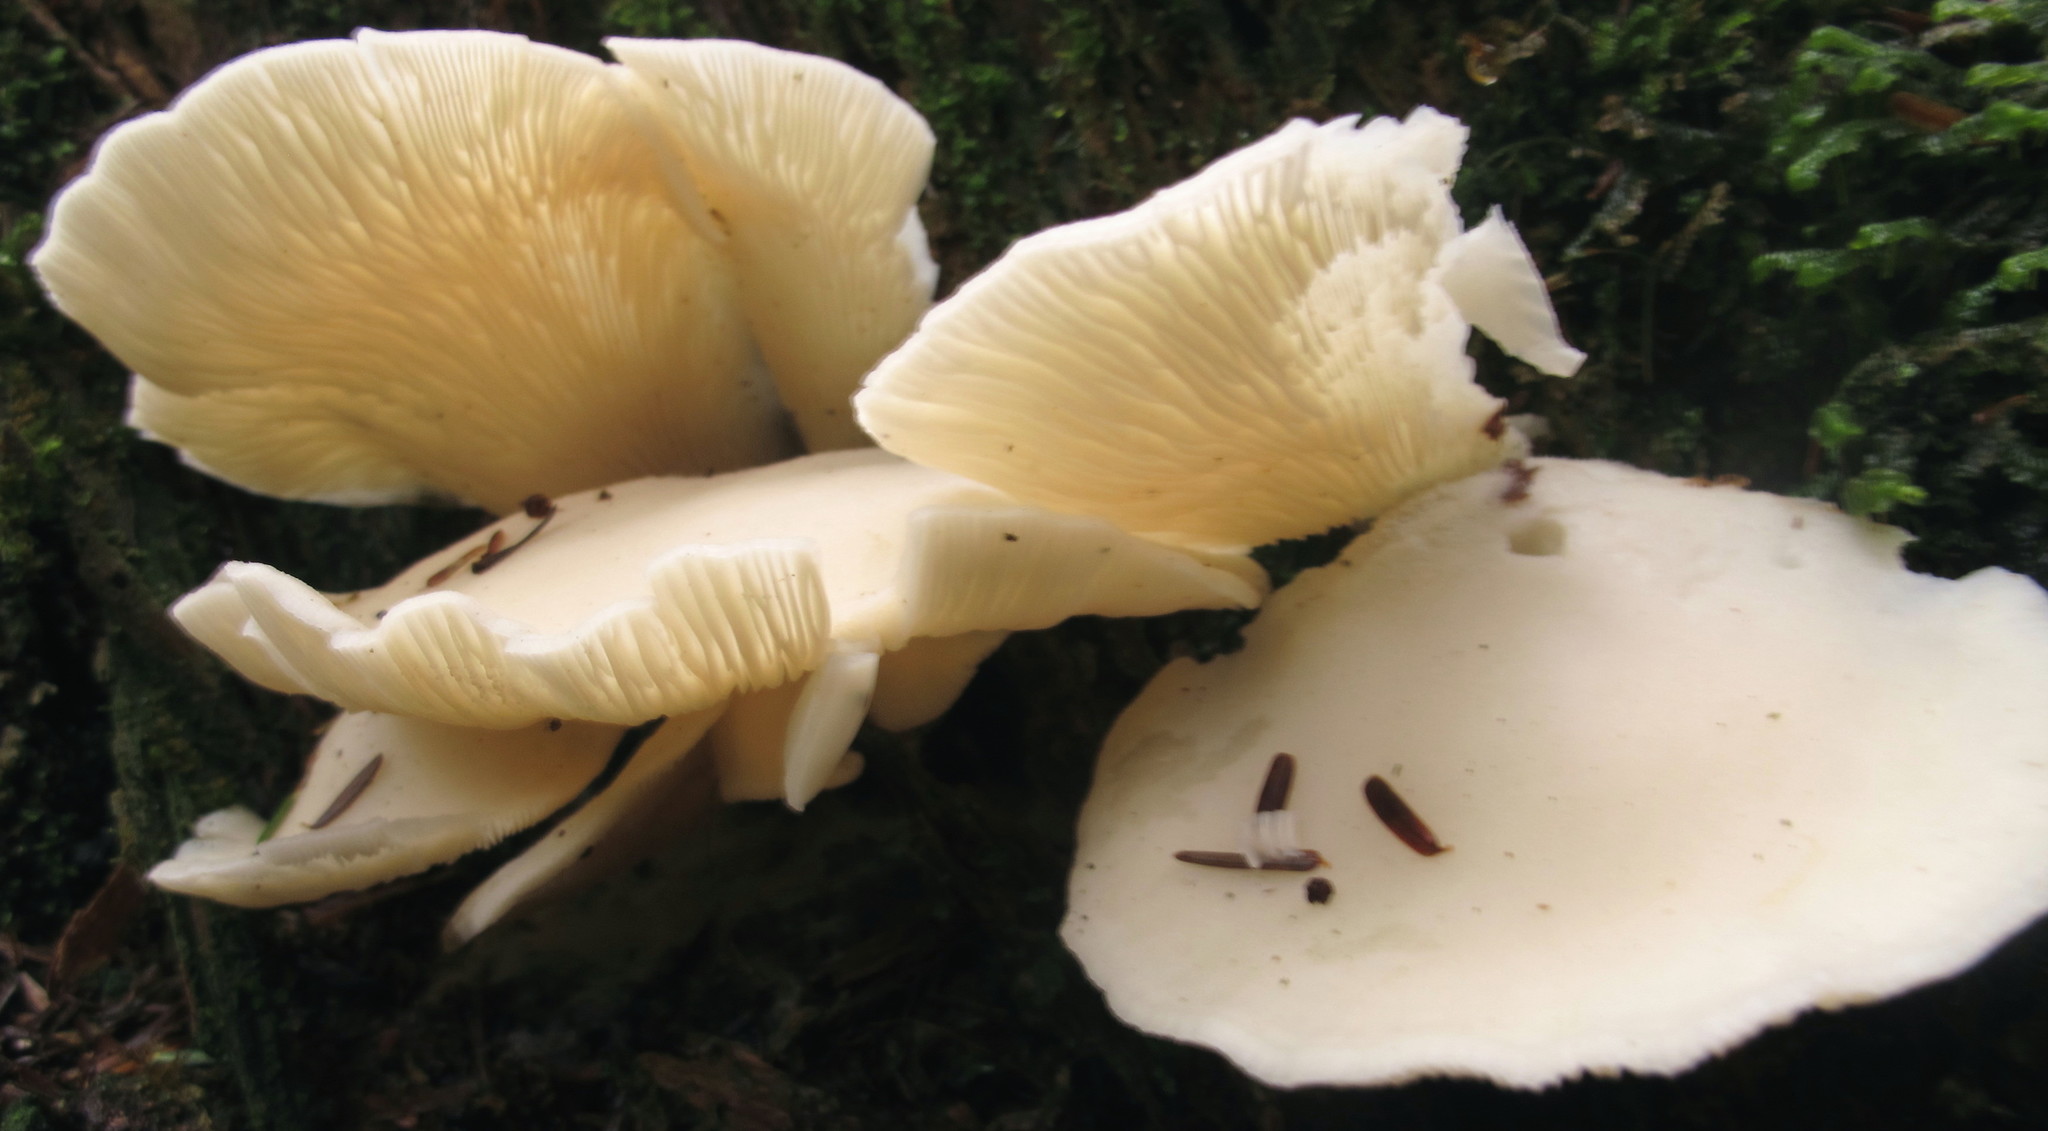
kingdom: Fungi
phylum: Basidiomycota
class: Agaricomycetes
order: Agaricales
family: Marasmiaceae
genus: Pleurocybella
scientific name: Pleurocybella porrigens
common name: Angel's wings
